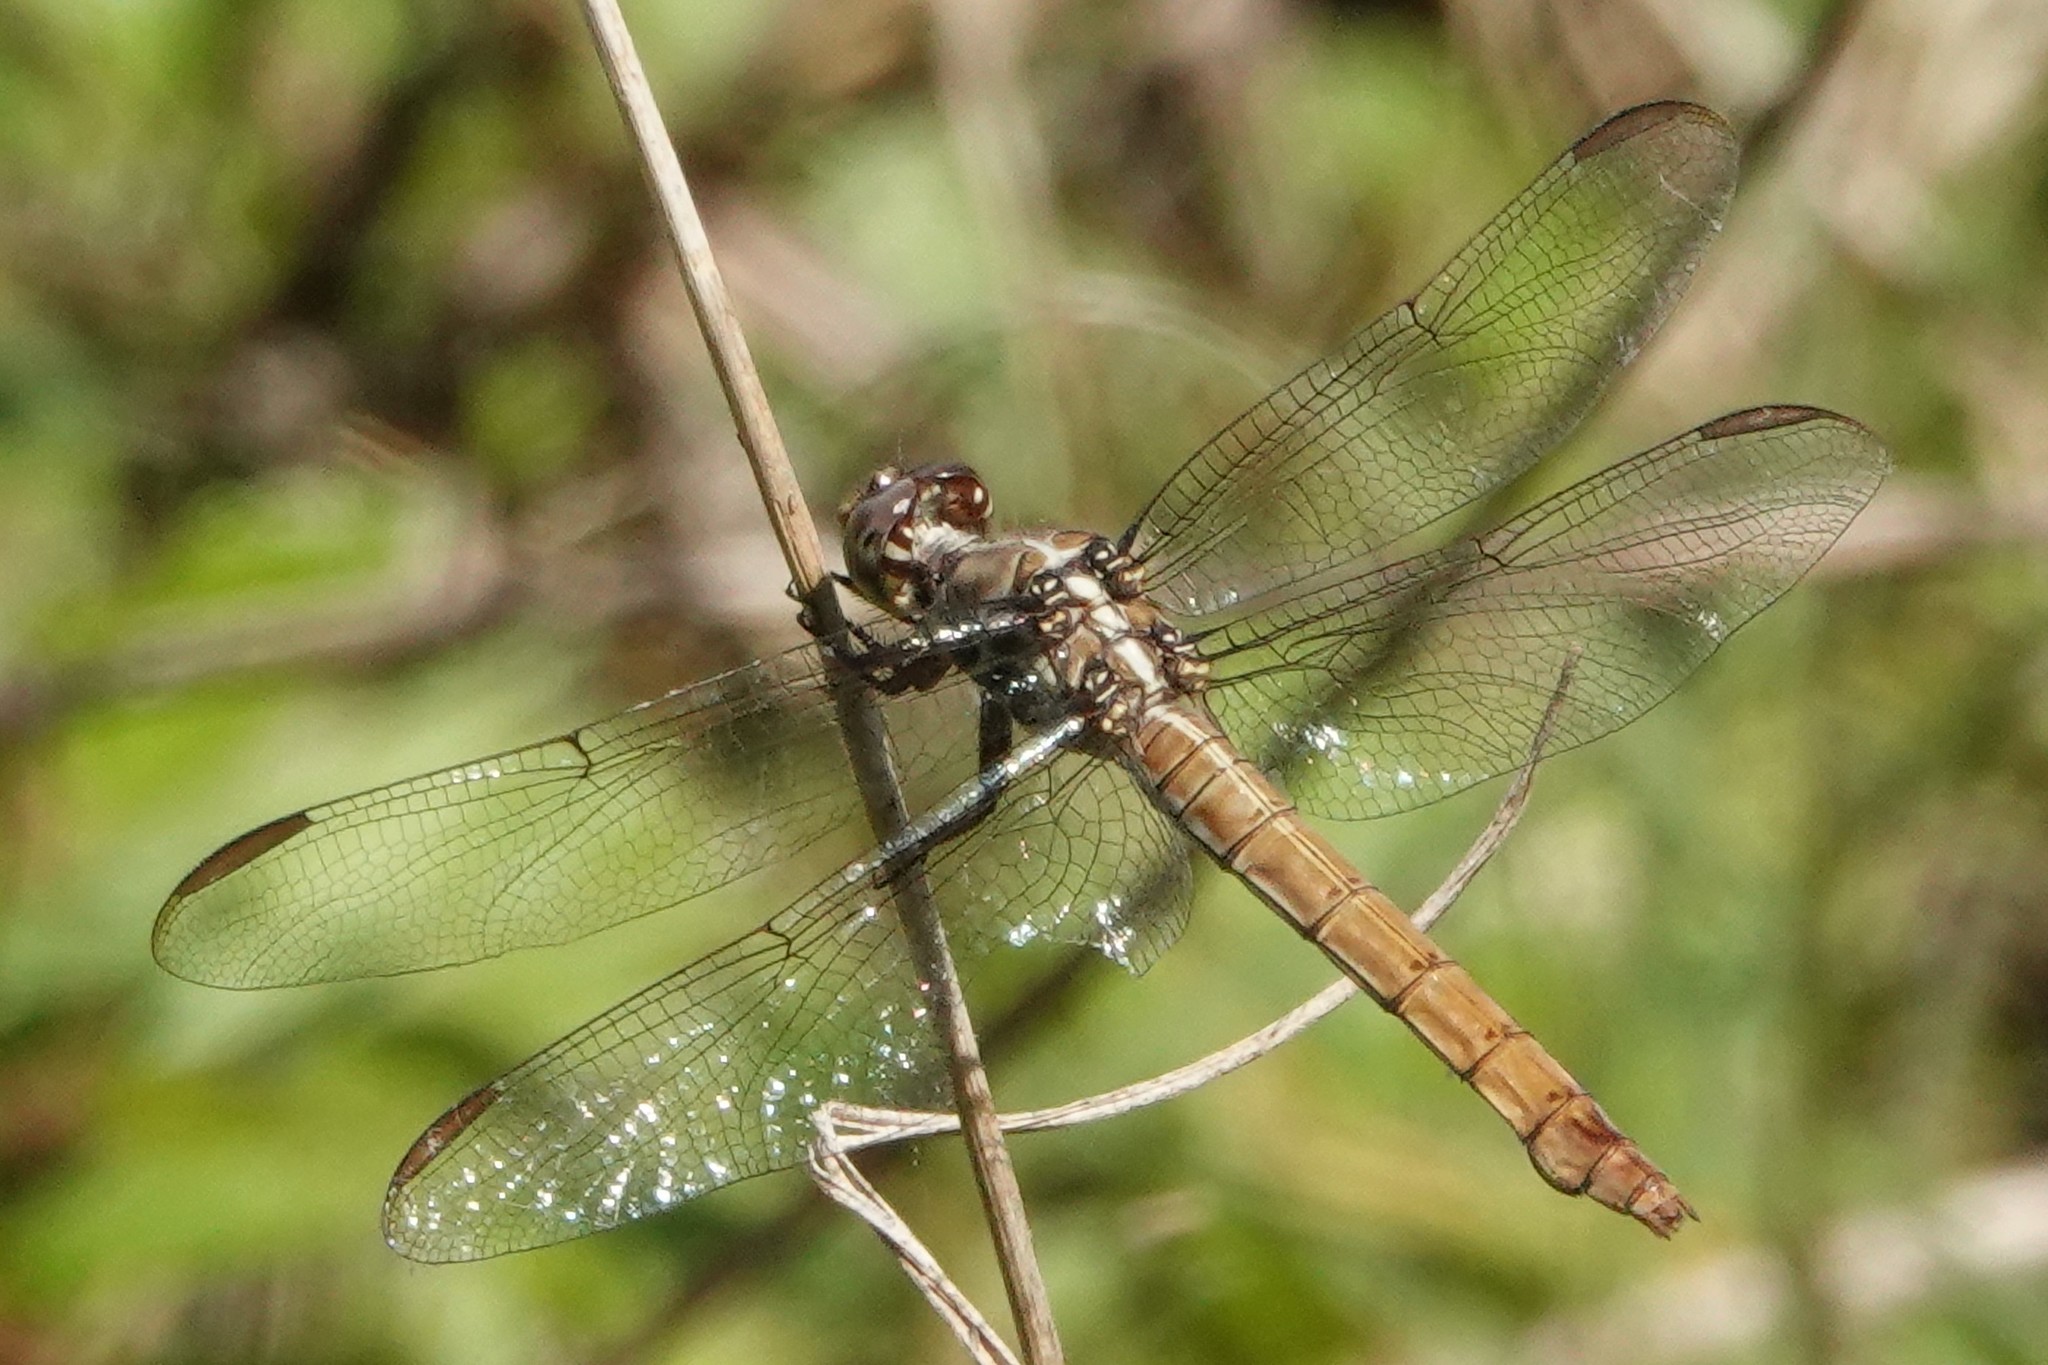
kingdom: Animalia
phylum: Arthropoda
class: Insecta
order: Odonata
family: Libellulidae
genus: Orthemis
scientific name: Orthemis ferruginea
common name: Roseate skimmer
